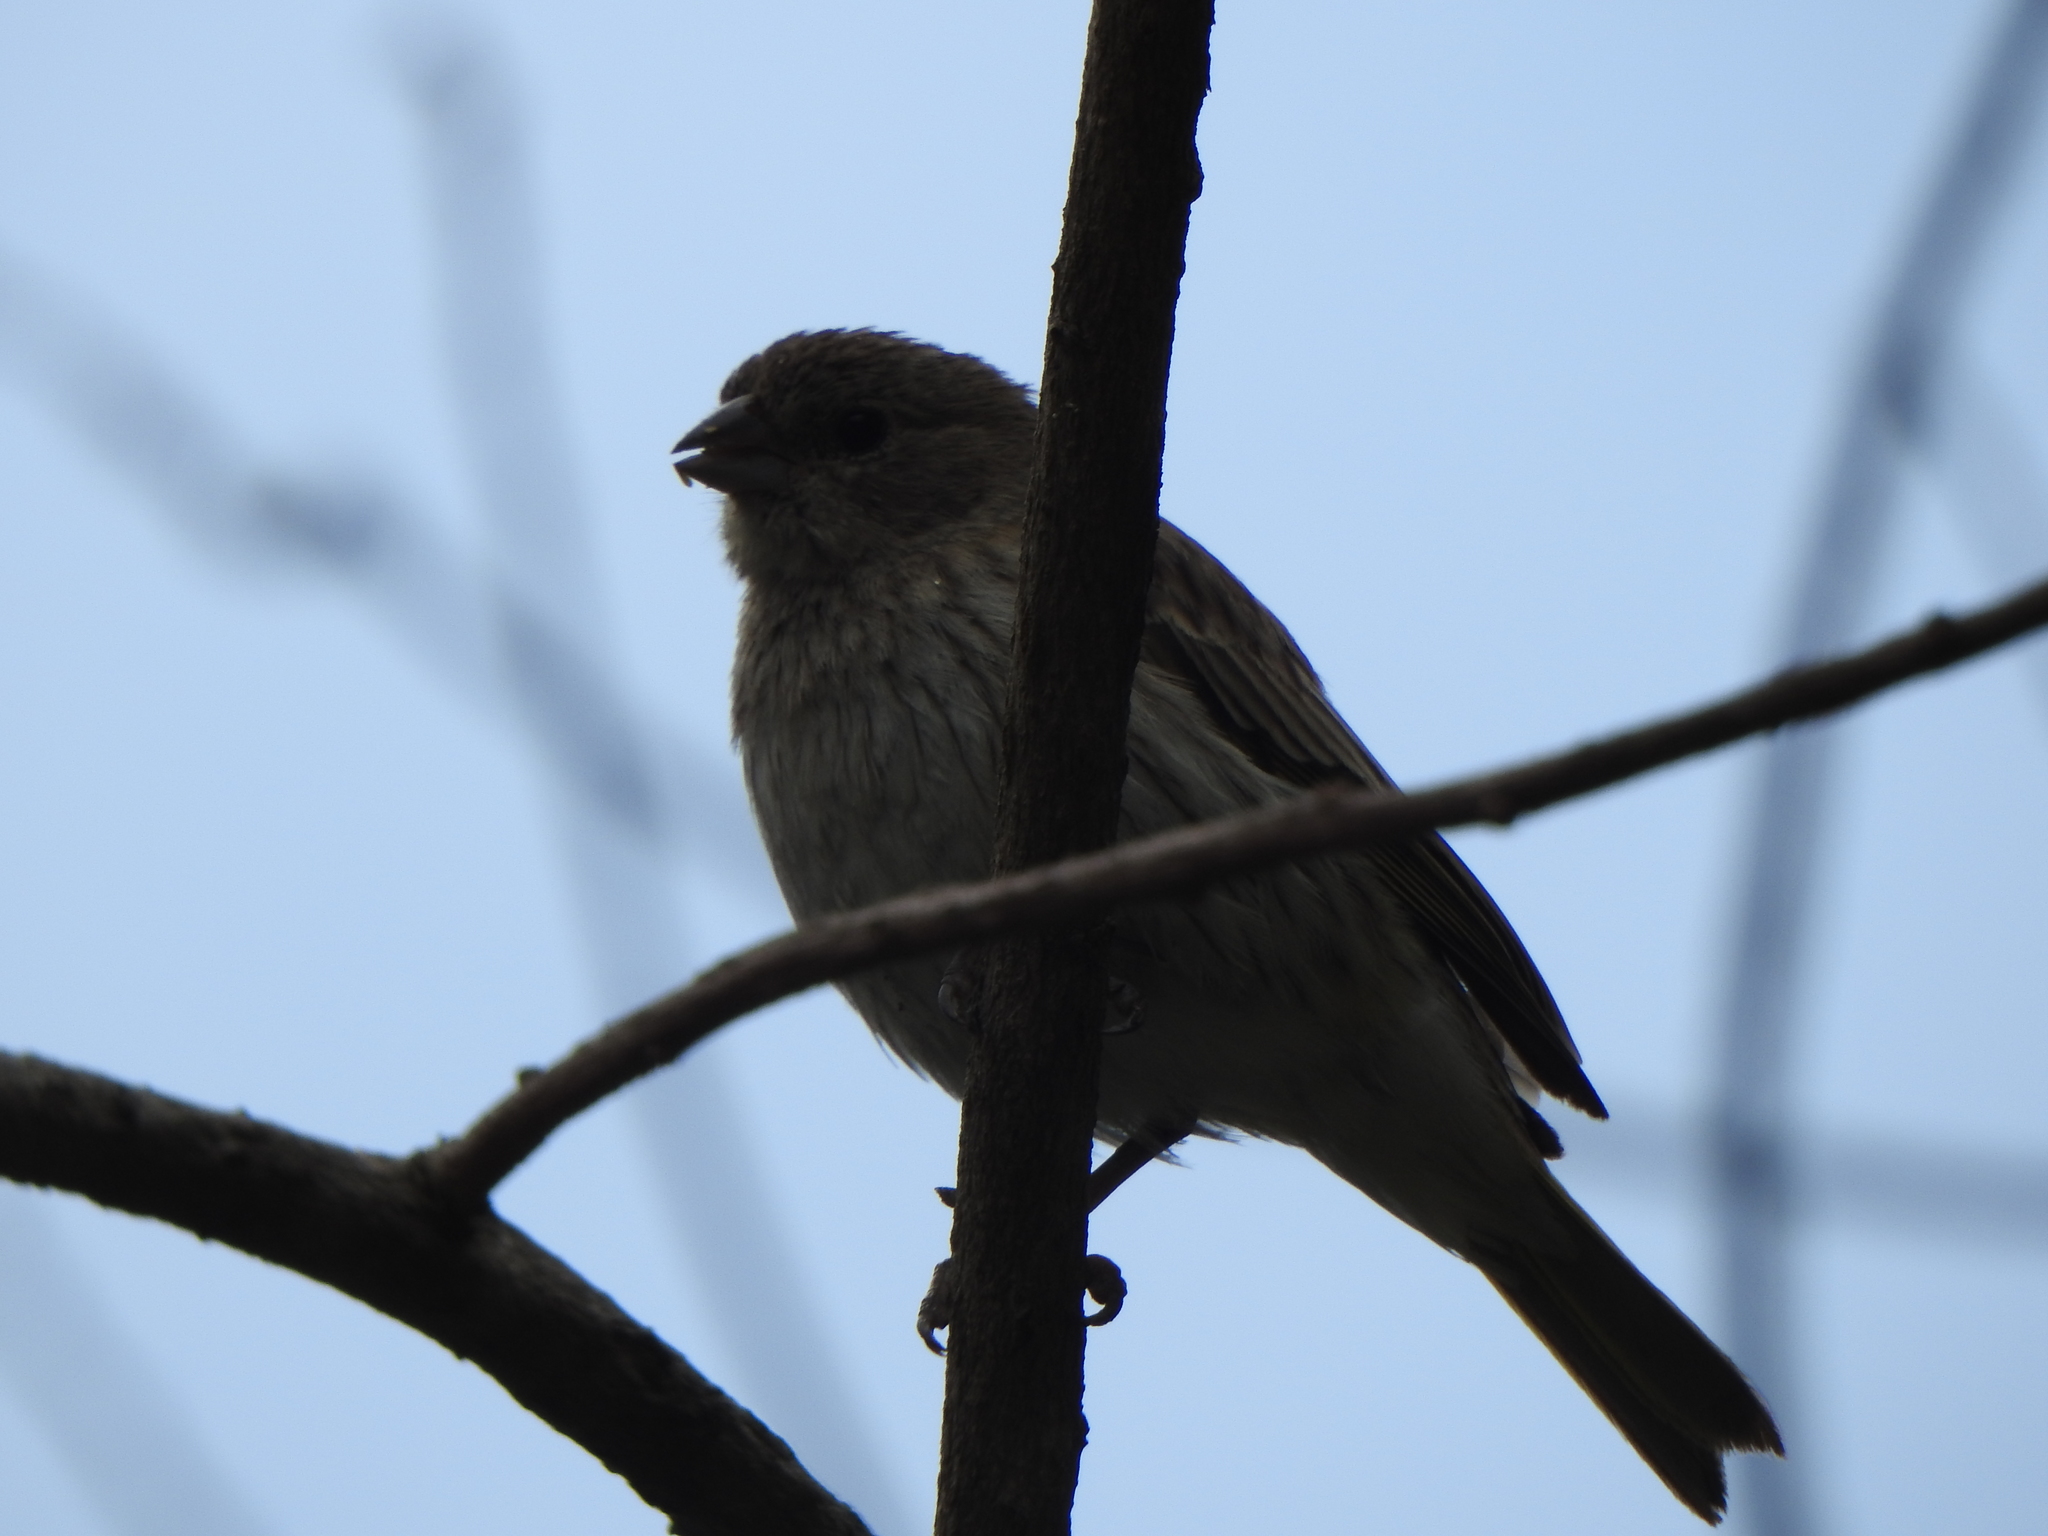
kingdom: Animalia
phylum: Chordata
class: Aves
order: Passeriformes
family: Thraupidae
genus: Sicalis
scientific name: Sicalis flaveola
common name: Saffron finch
